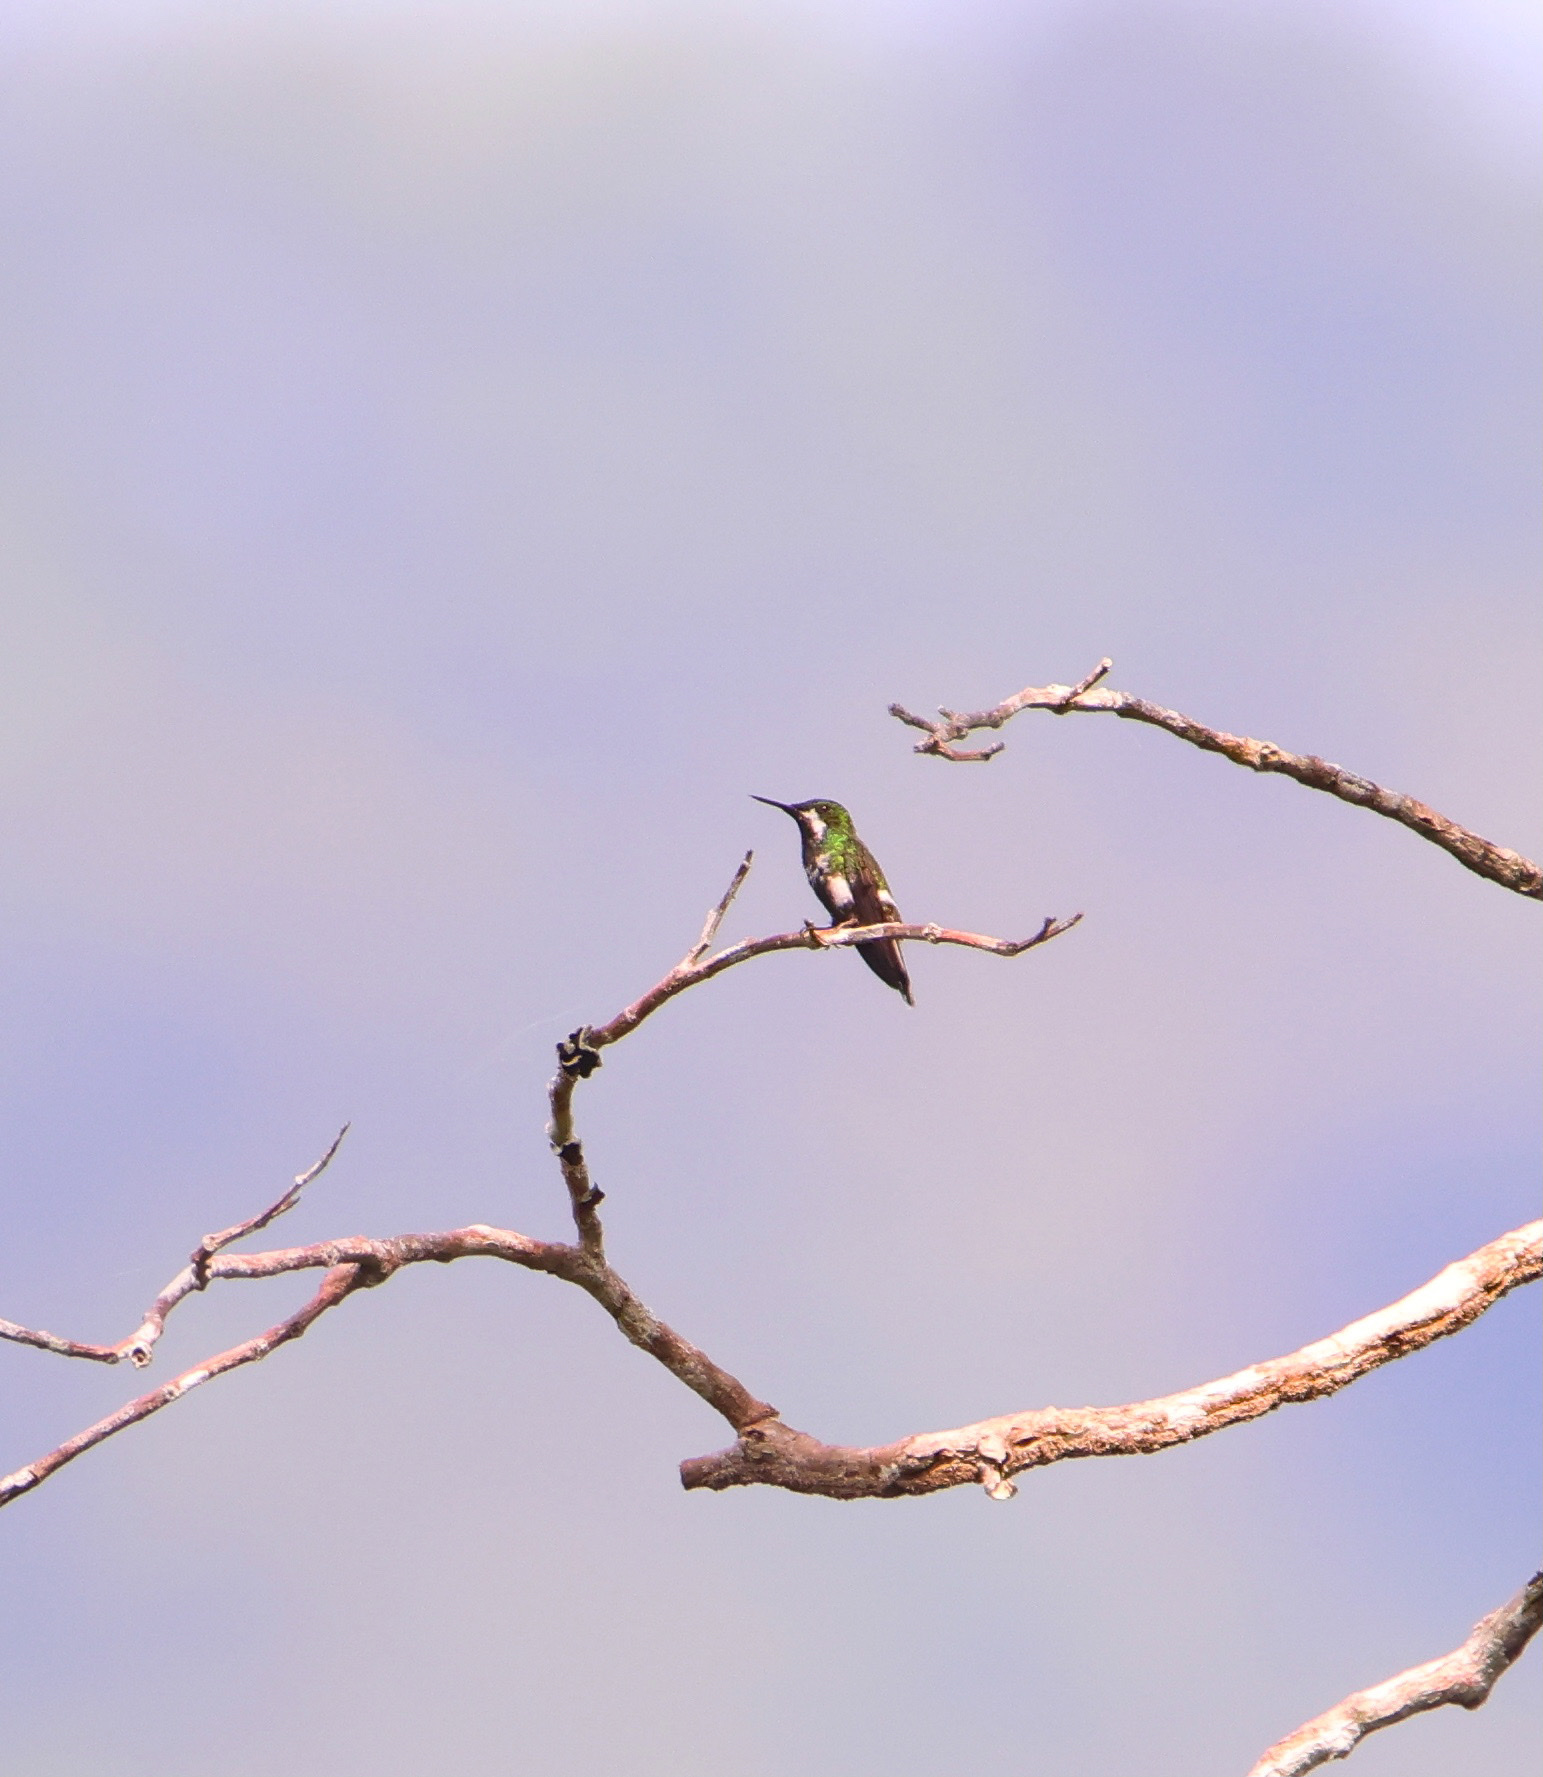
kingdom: Animalia
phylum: Chordata
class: Aves
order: Apodiformes
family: Trochilidae
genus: Discosura
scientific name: Discosura conversii
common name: Green thorntail
